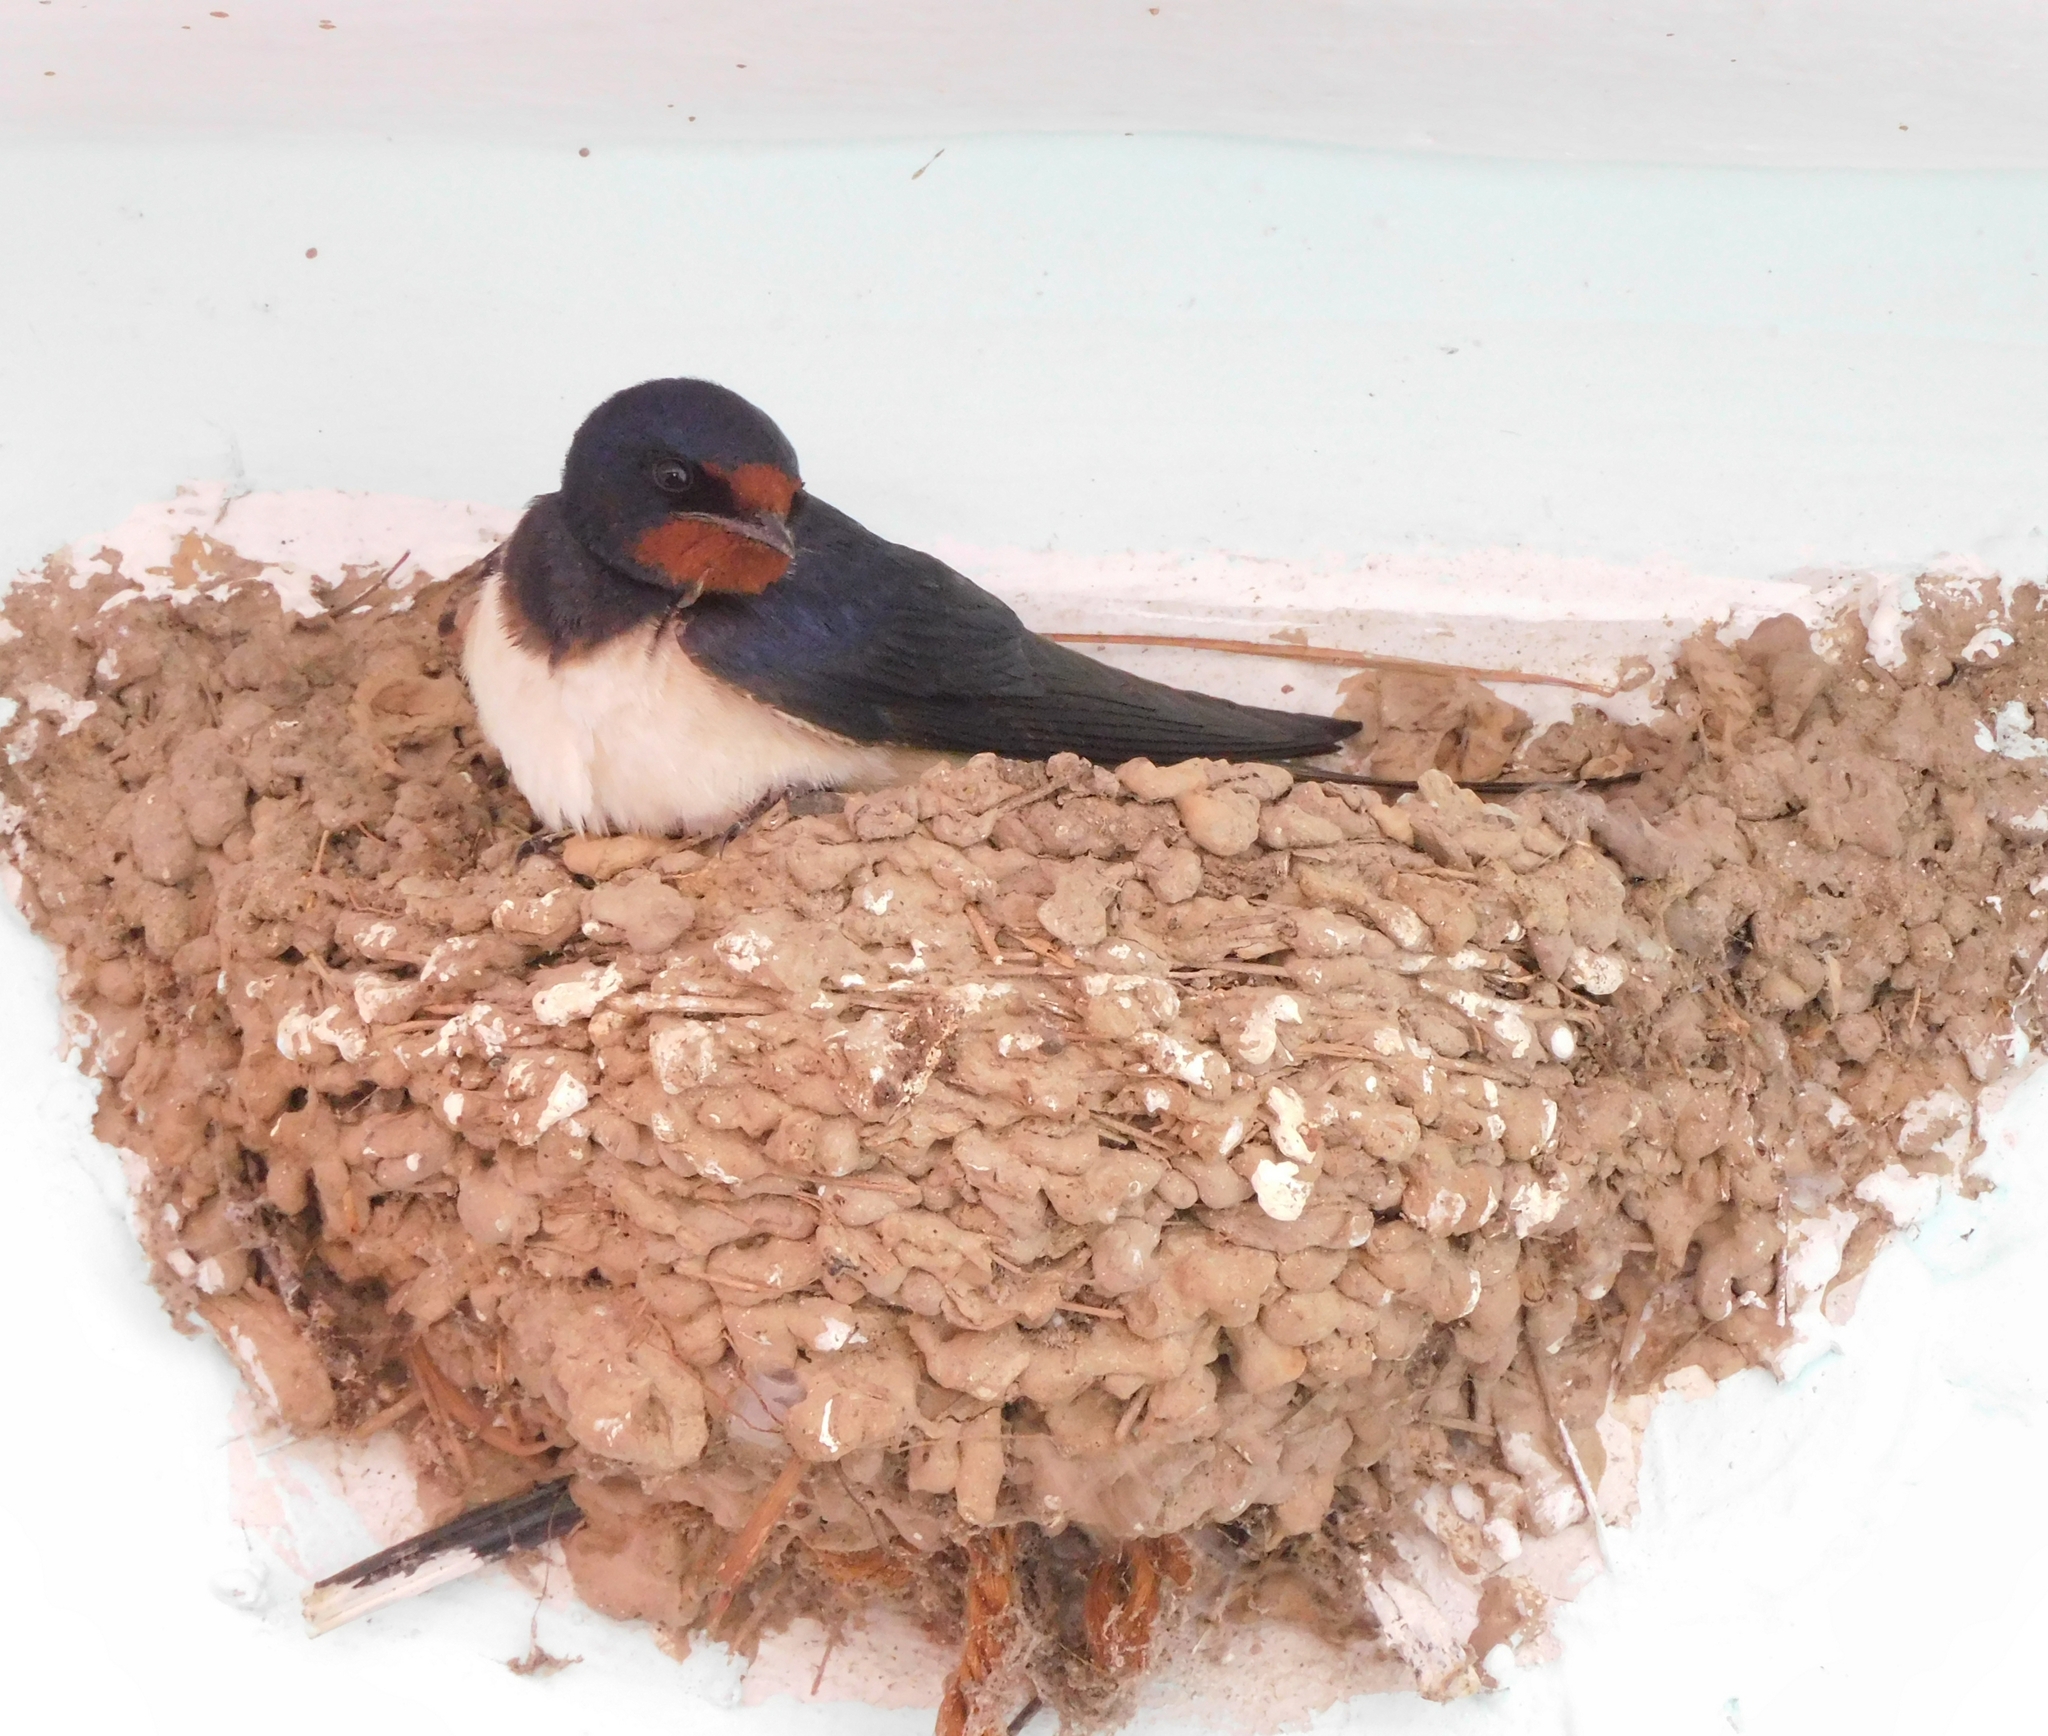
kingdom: Animalia
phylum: Chordata
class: Aves
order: Passeriformes
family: Hirundinidae
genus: Hirundo
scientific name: Hirundo rustica
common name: Barn swallow
